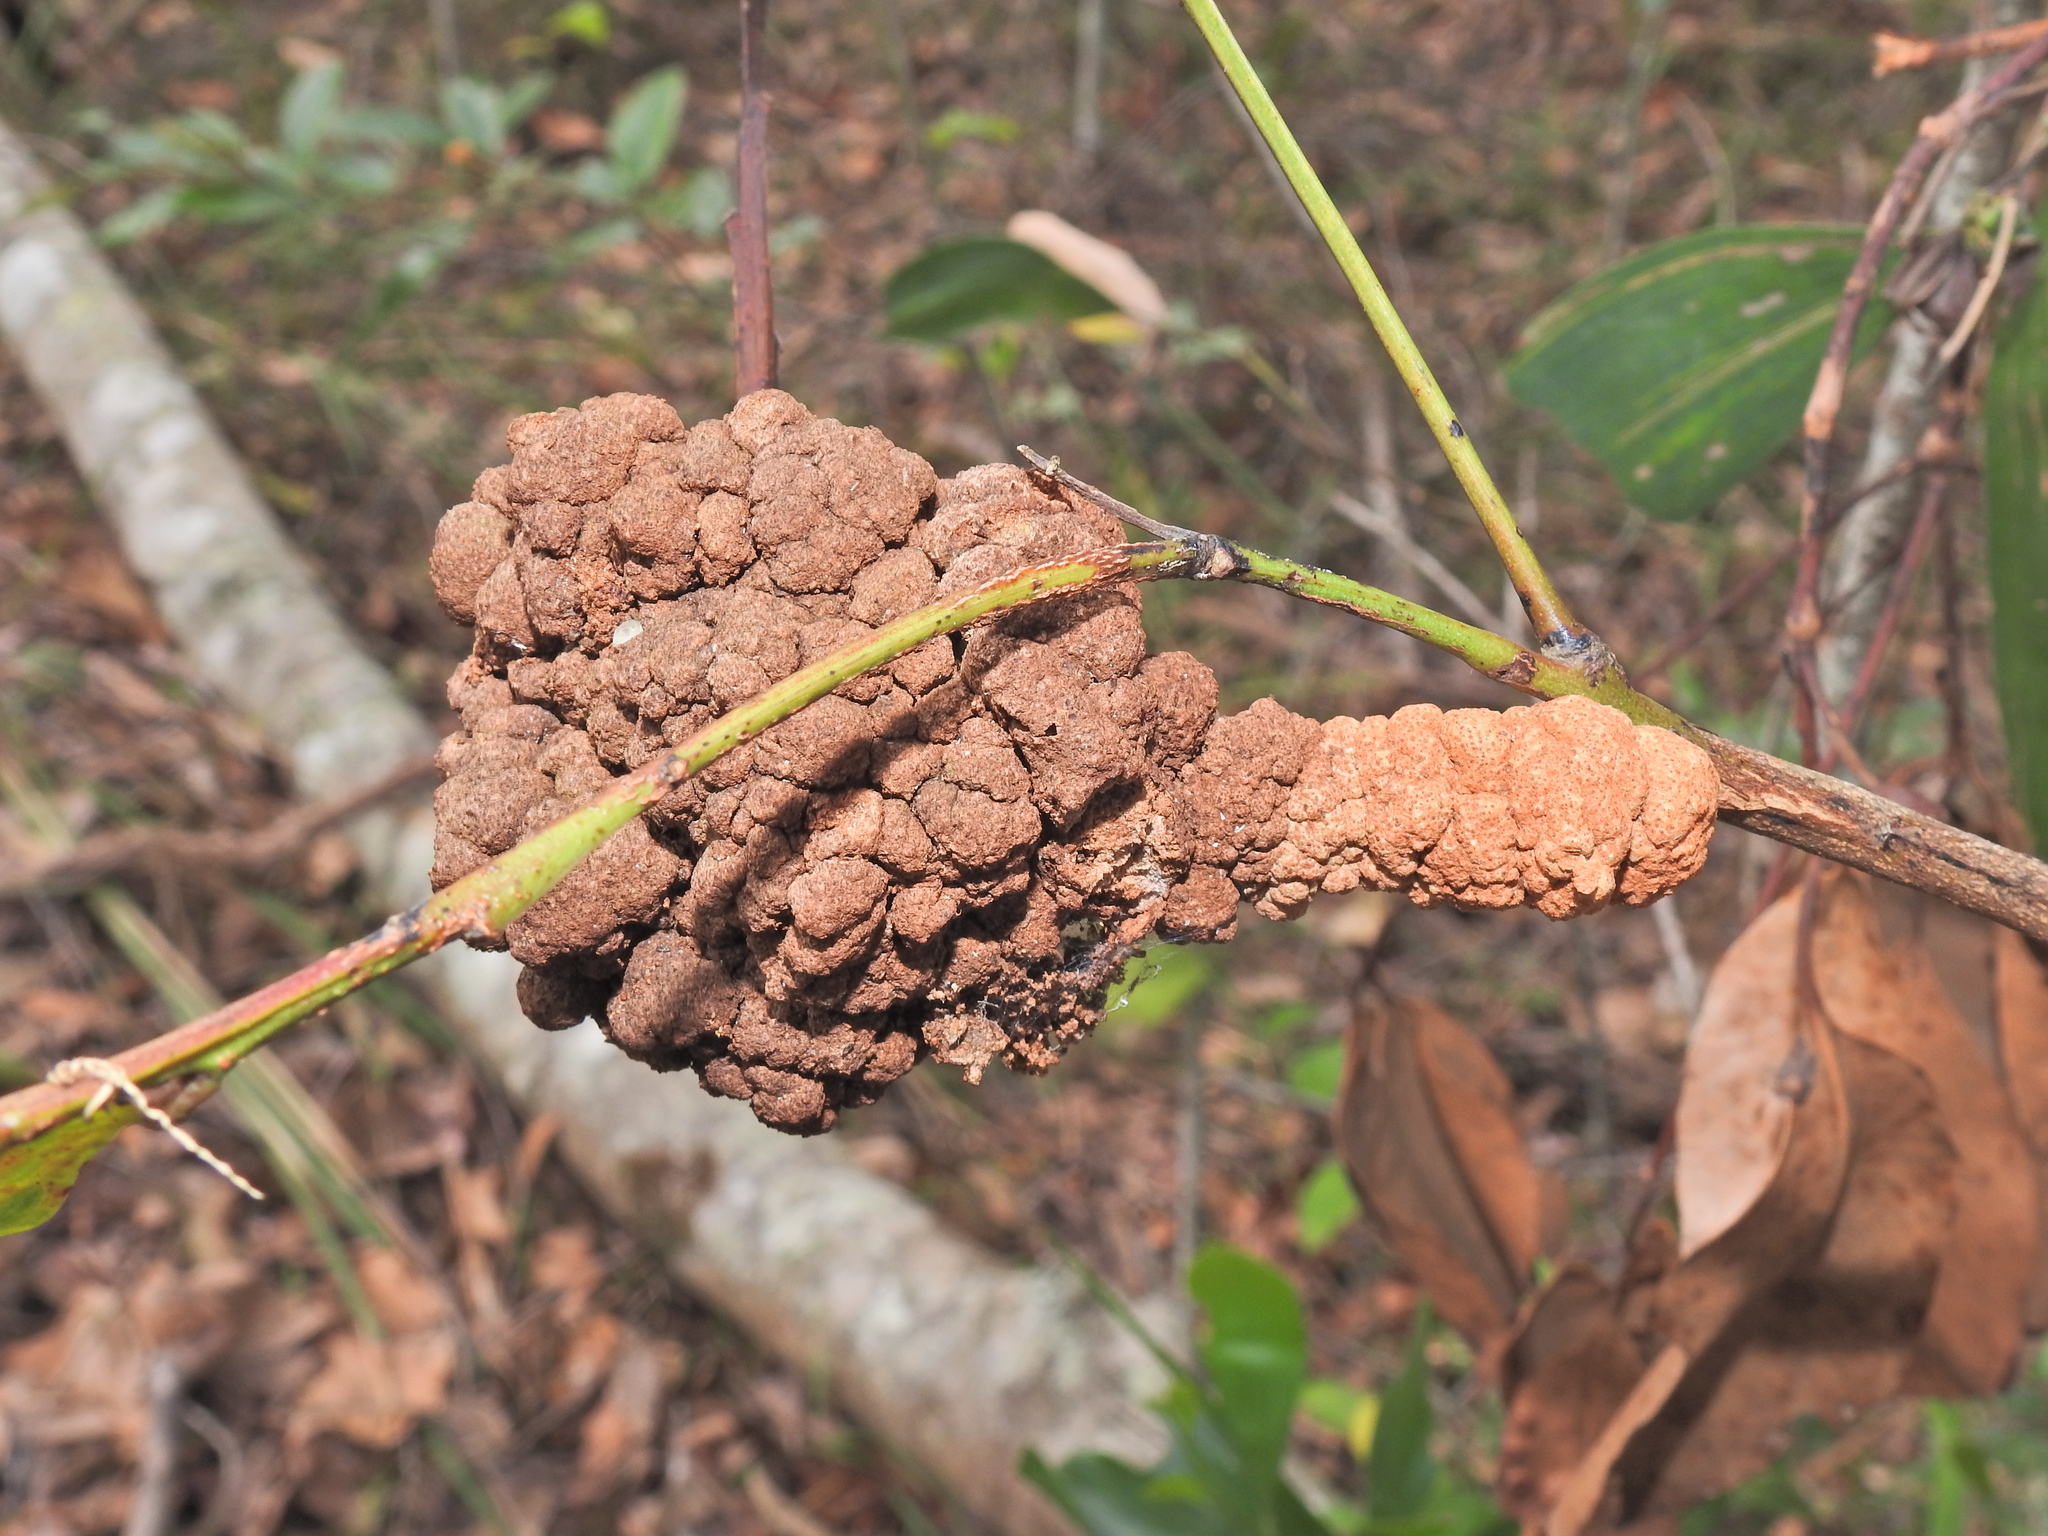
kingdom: Fungi
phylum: Basidiomycota
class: Pucciniomycetes
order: Pucciniales
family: Uromycladiaceae
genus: Uromycladium
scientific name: Uromycladium leiocalycis
